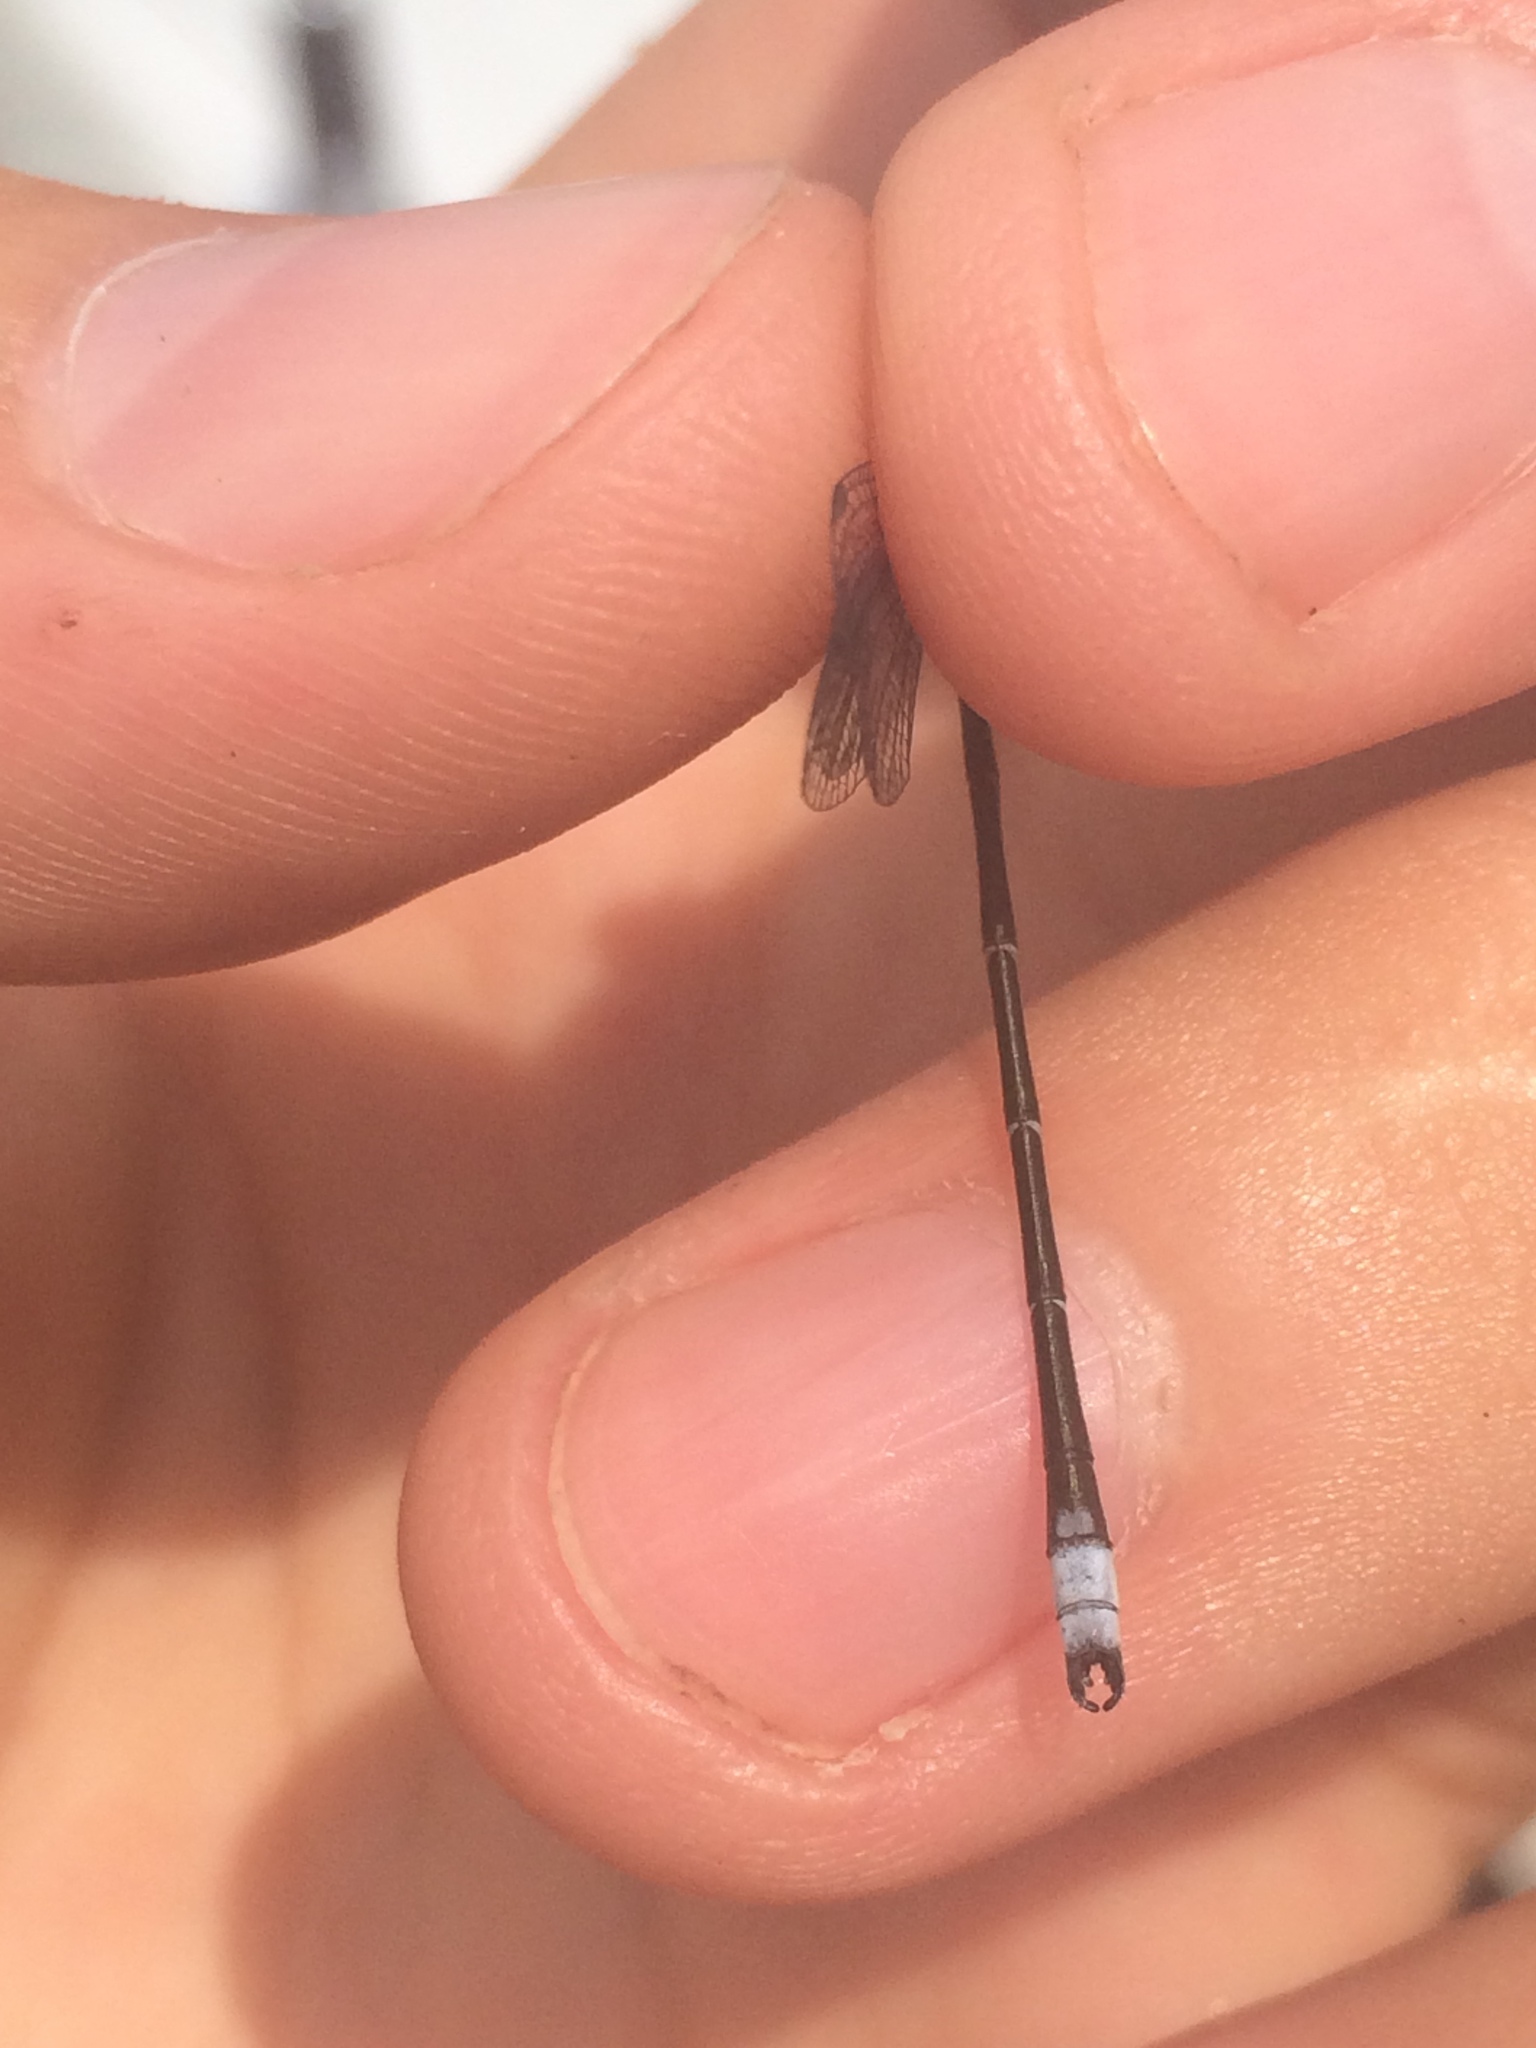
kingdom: Animalia
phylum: Arthropoda
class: Insecta
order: Odonata
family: Lestidae
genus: Lestes
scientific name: Lestes congener
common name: Spotted spreadwing
